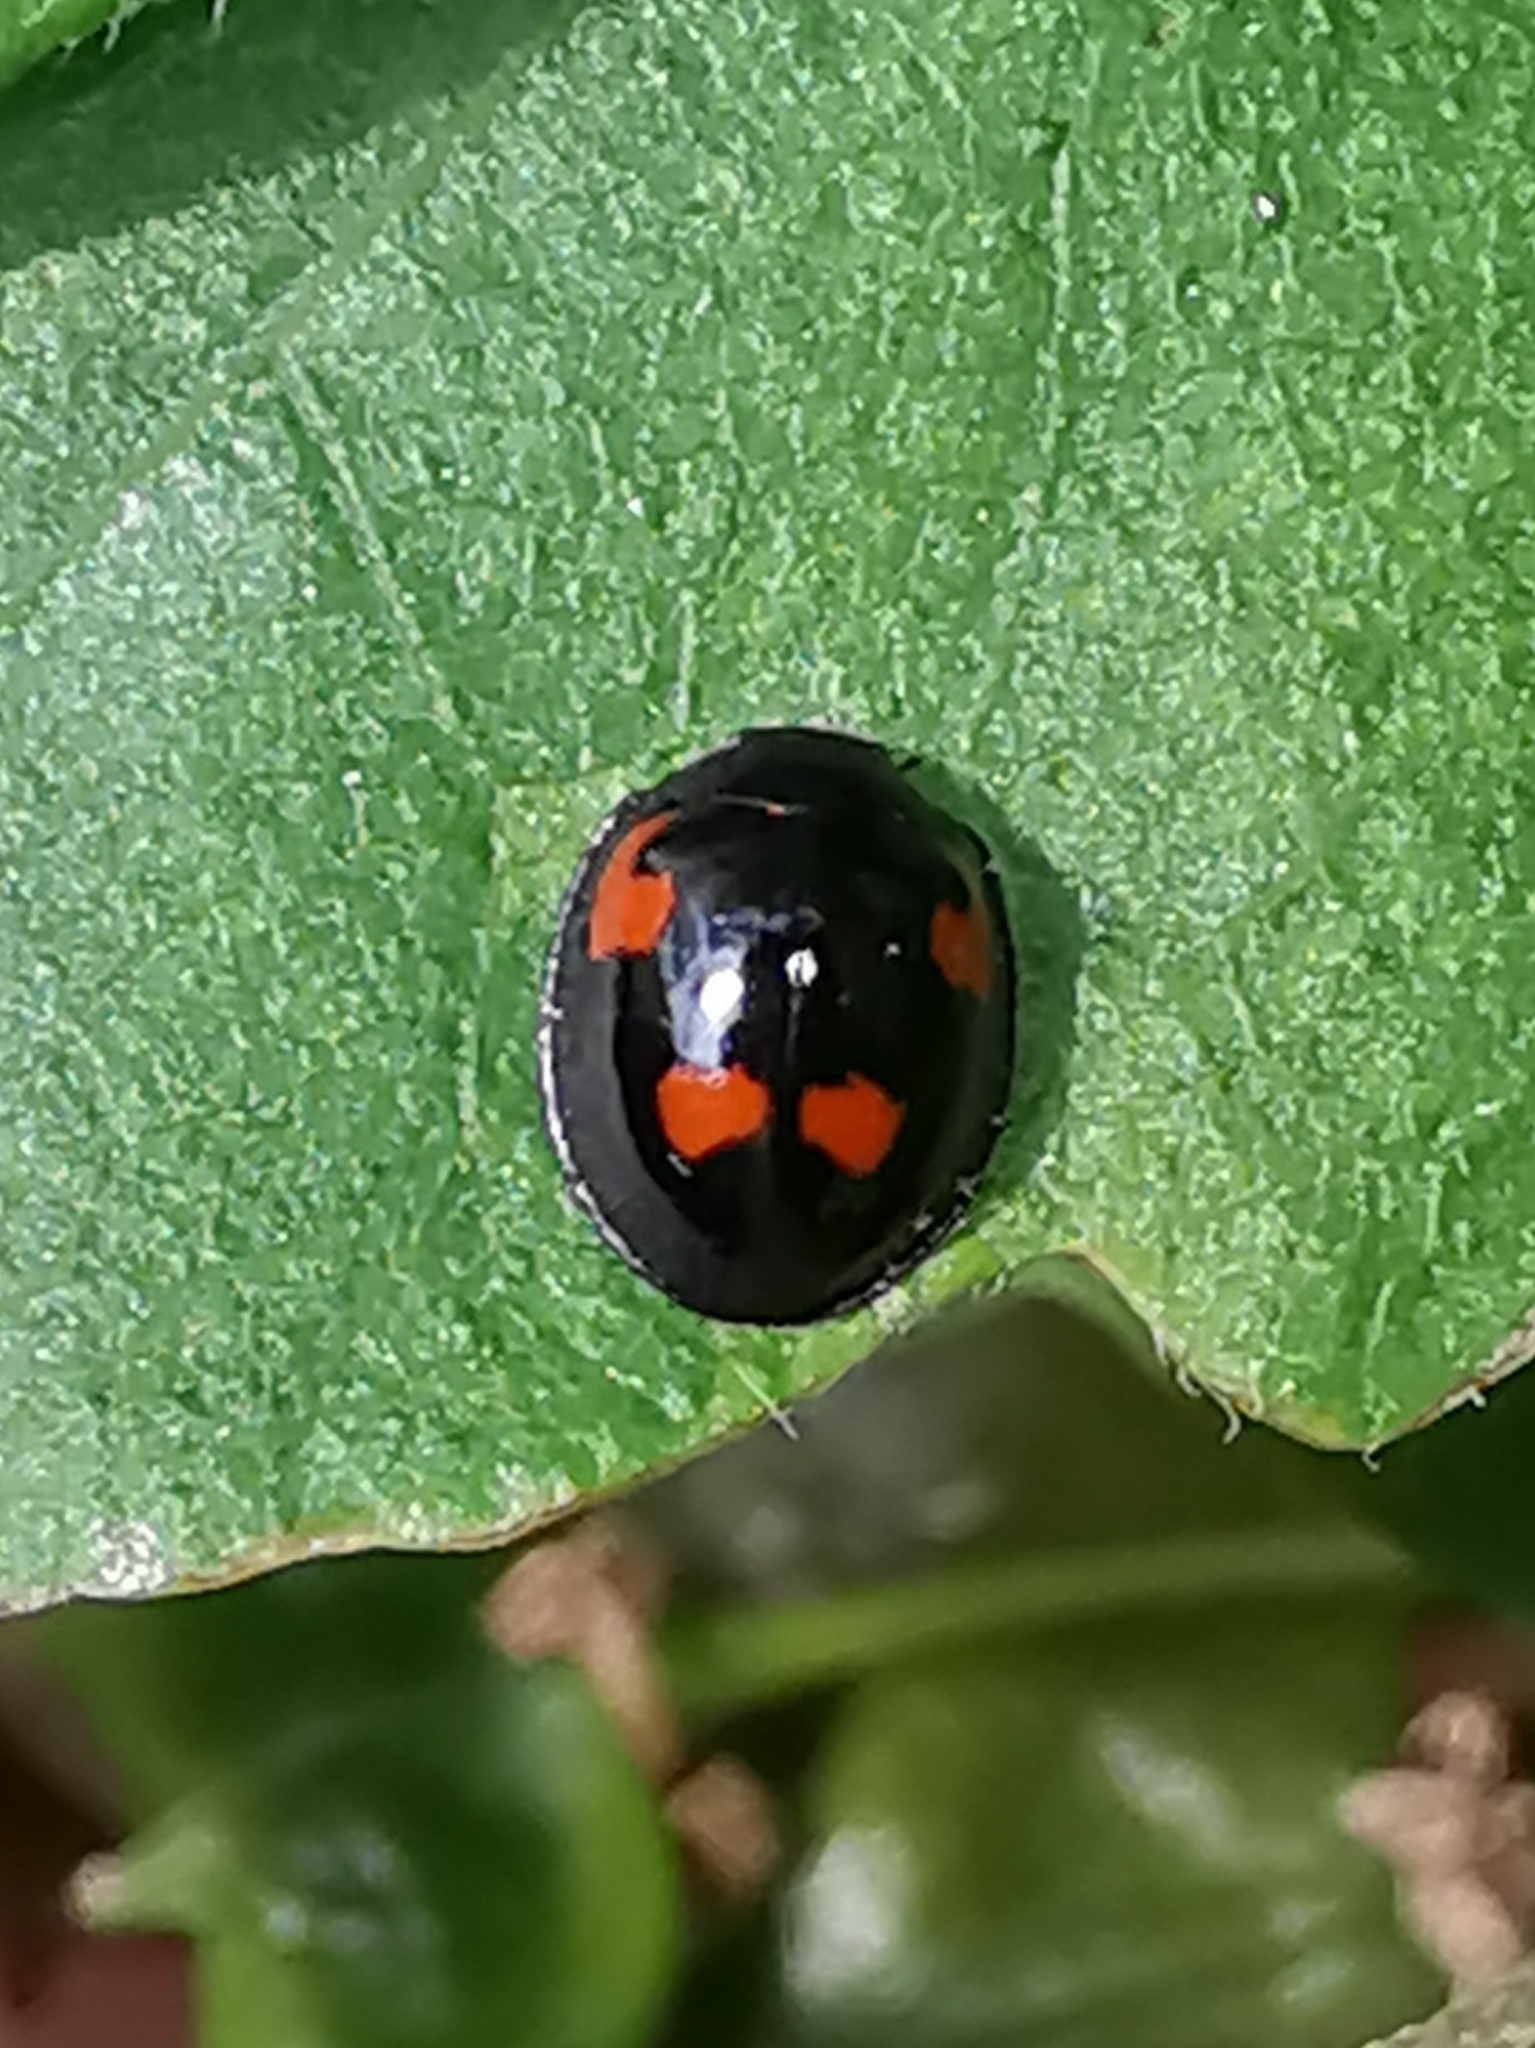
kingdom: Animalia
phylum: Arthropoda
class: Insecta
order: Coleoptera
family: Coccinellidae
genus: Brumus
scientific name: Brumus quadripustulatus
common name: Ladybird beetle
